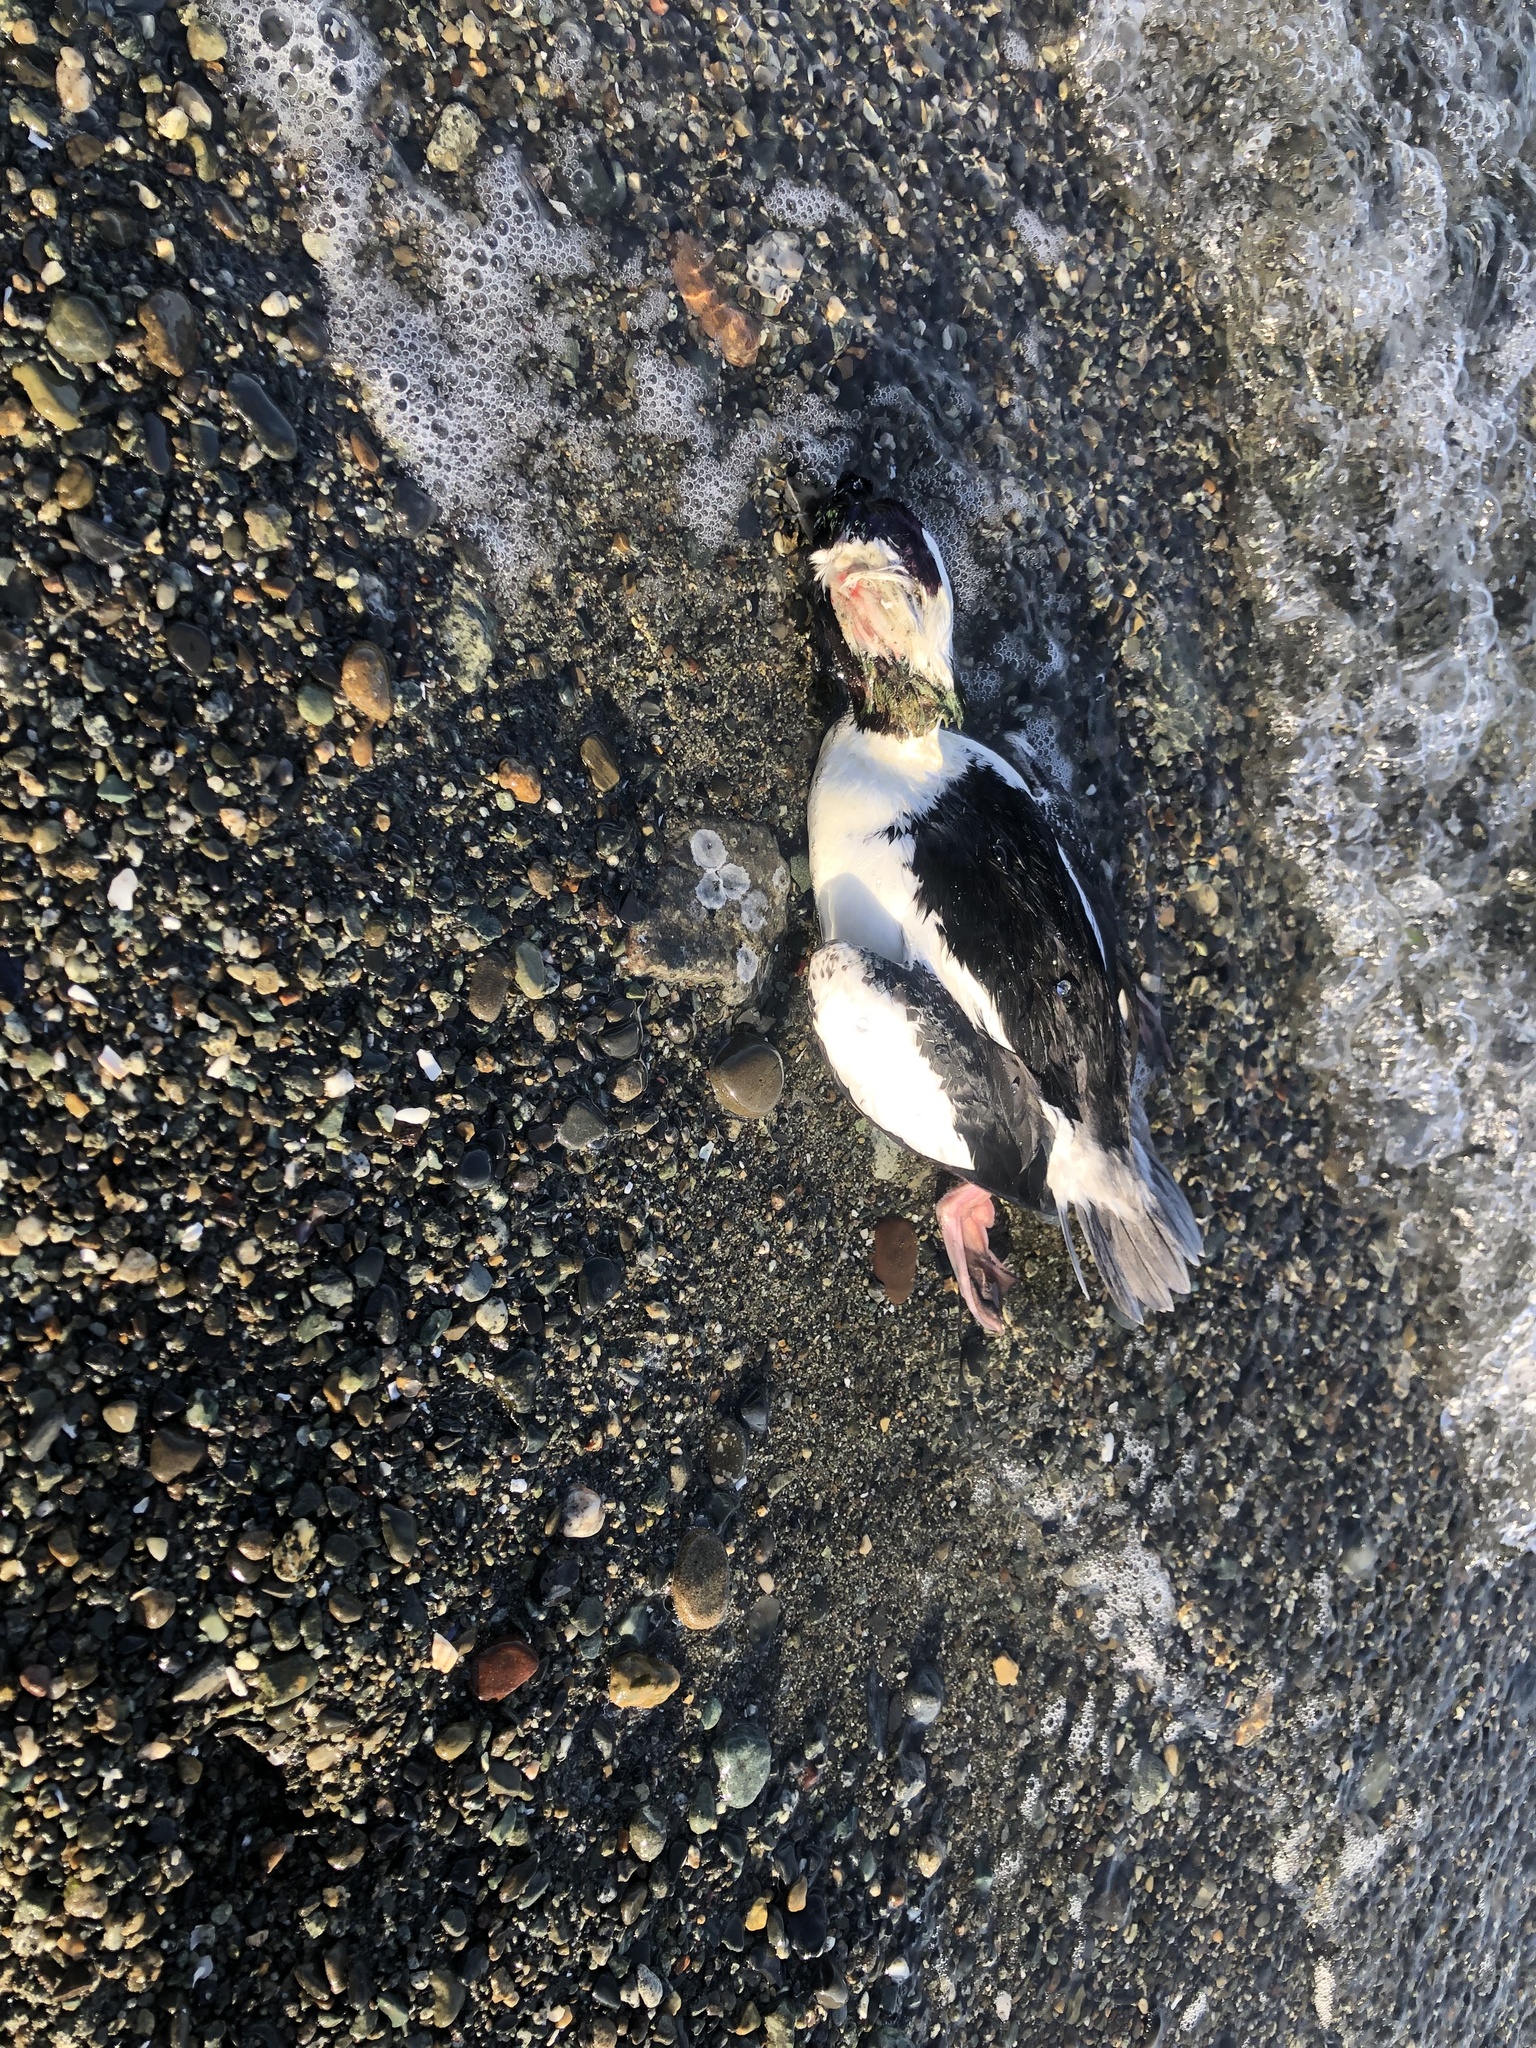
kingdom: Animalia
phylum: Chordata
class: Aves
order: Anseriformes
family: Anatidae
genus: Bucephala
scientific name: Bucephala albeola
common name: Bufflehead
